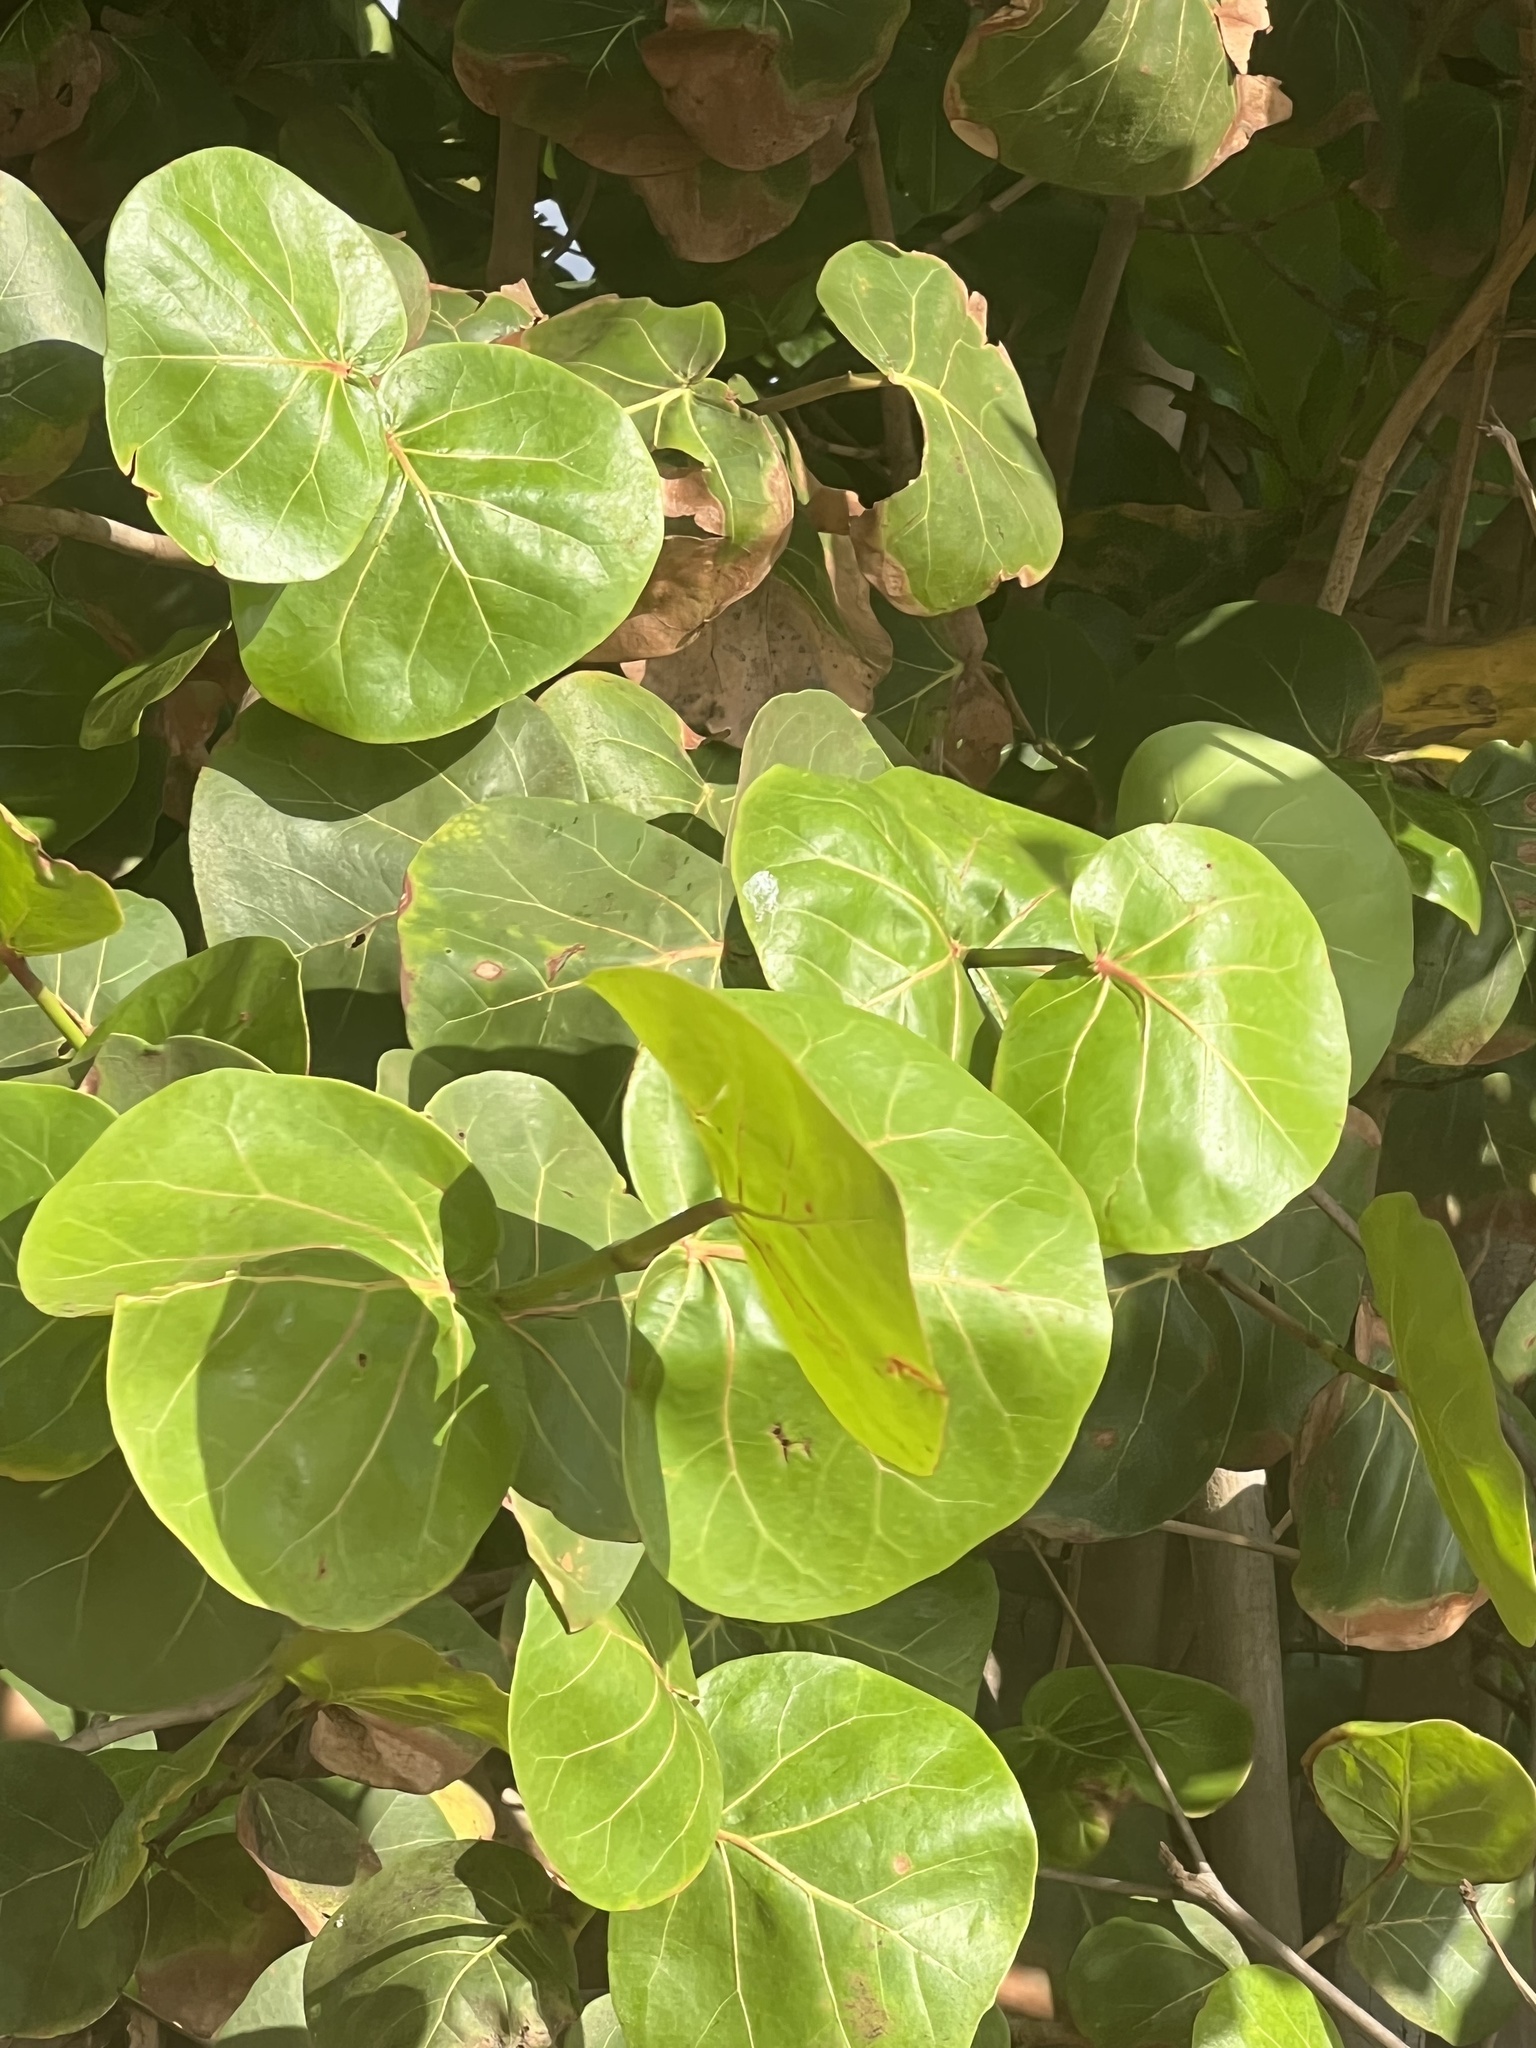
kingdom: Plantae
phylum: Tracheophyta
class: Magnoliopsida
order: Caryophyllales
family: Polygonaceae
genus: Coccoloba
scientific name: Coccoloba uvifera
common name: Seagrape
